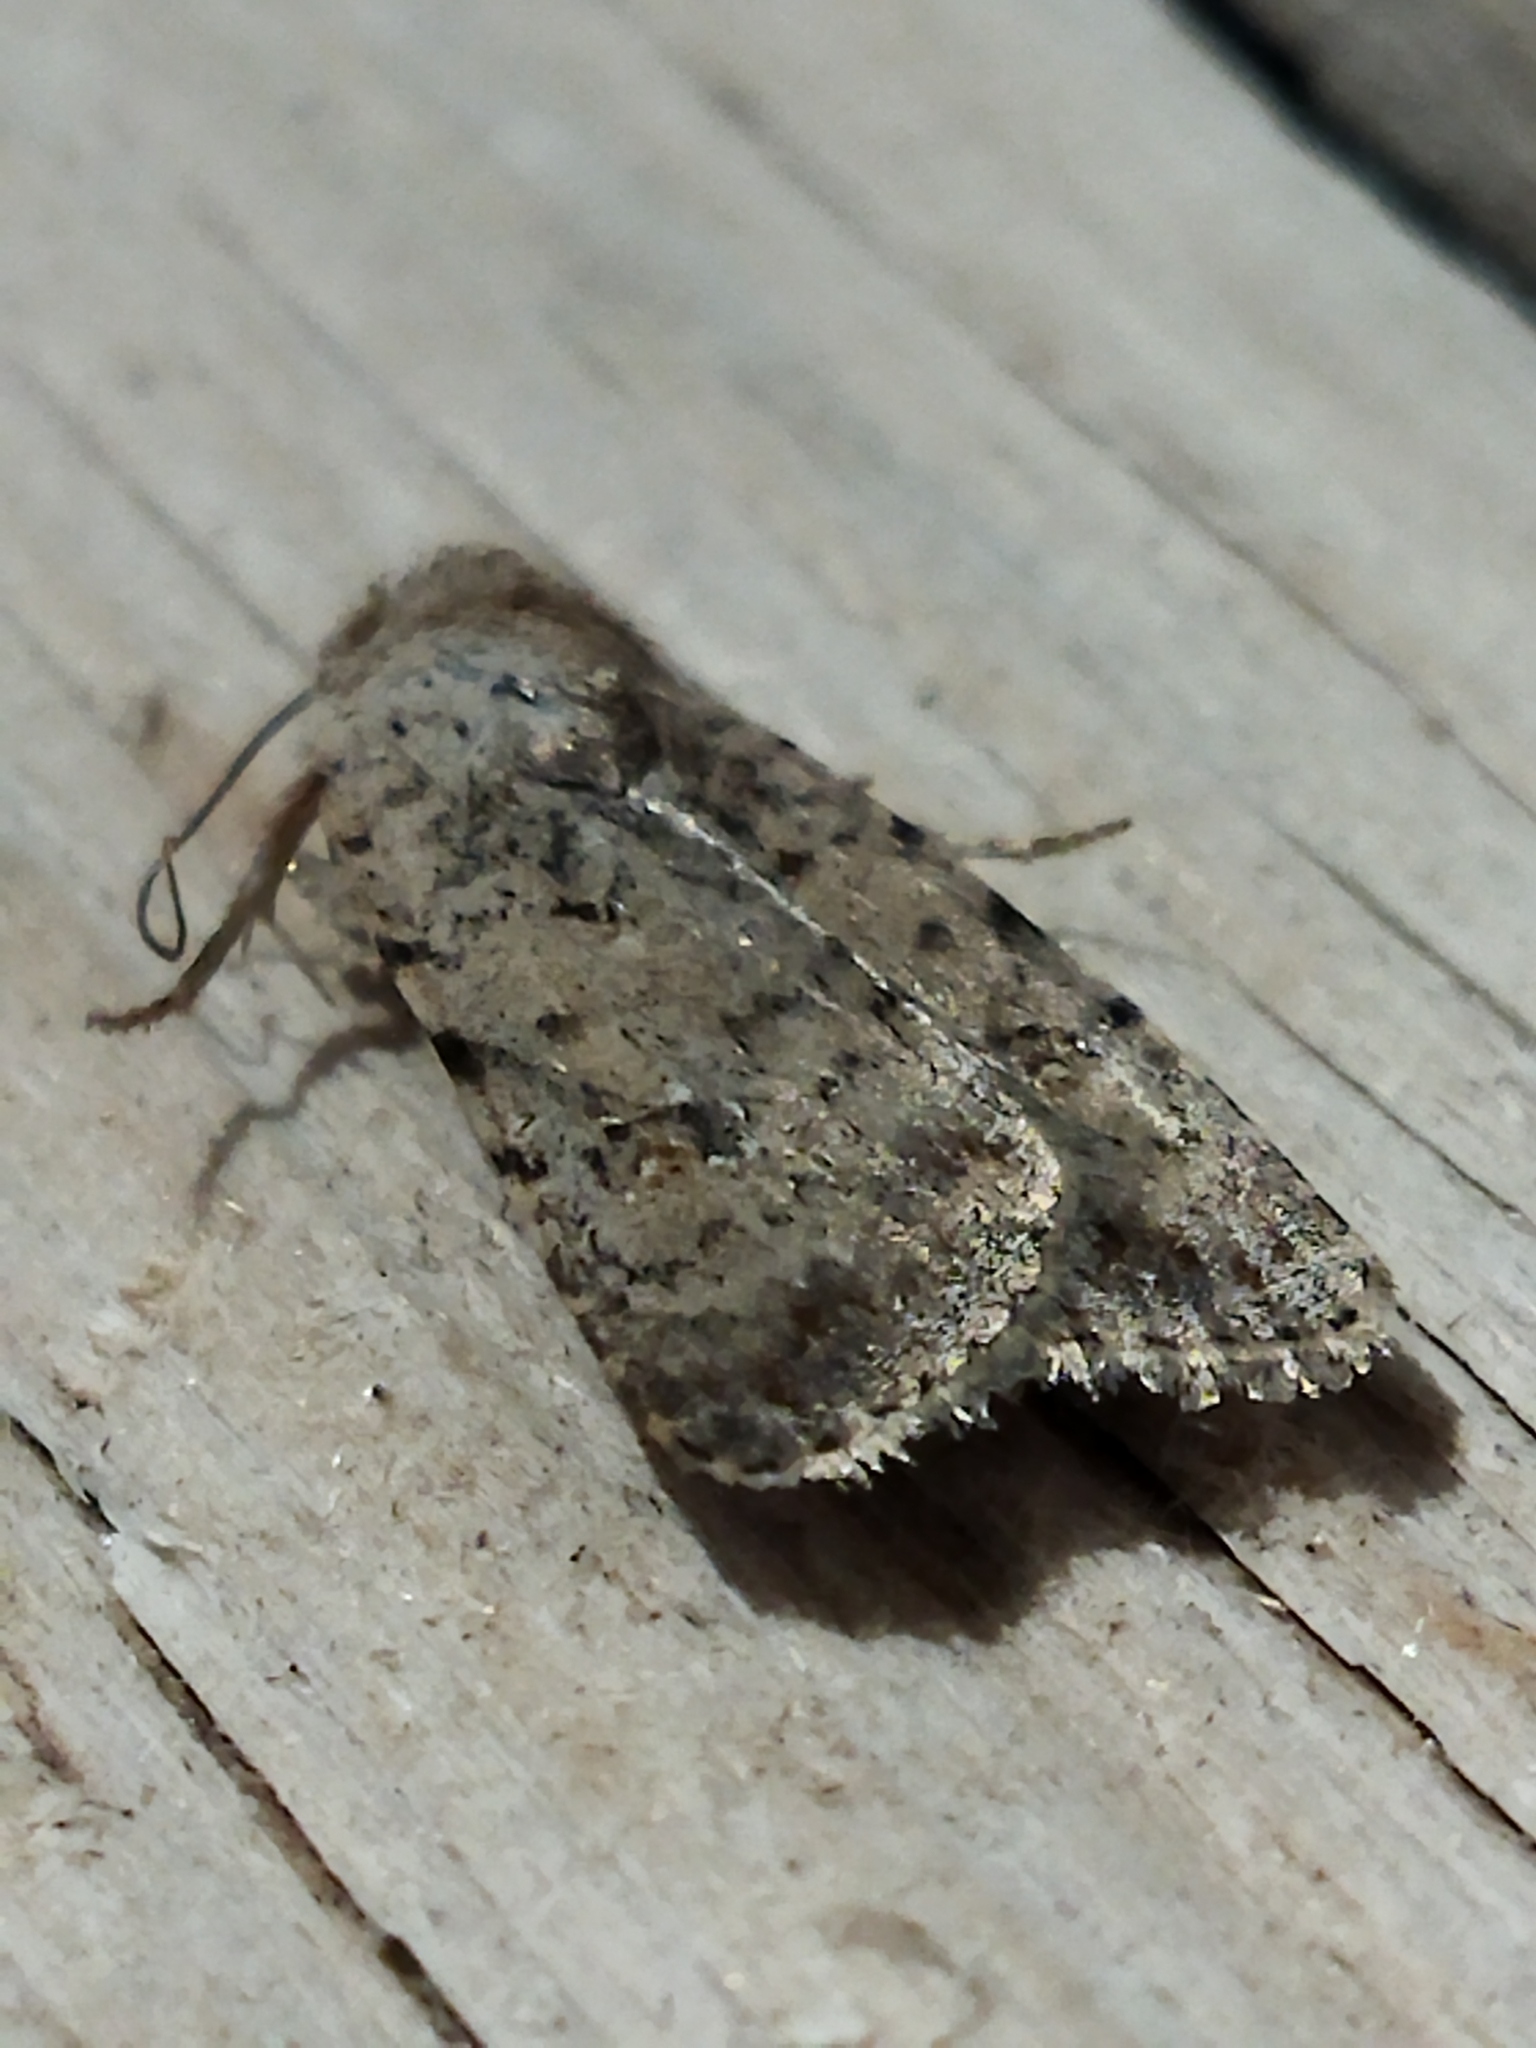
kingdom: Animalia
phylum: Arthropoda
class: Insecta
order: Lepidoptera
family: Noctuidae
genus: Caradrina
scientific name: Caradrina clavipalpis
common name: Pale mottled willow
